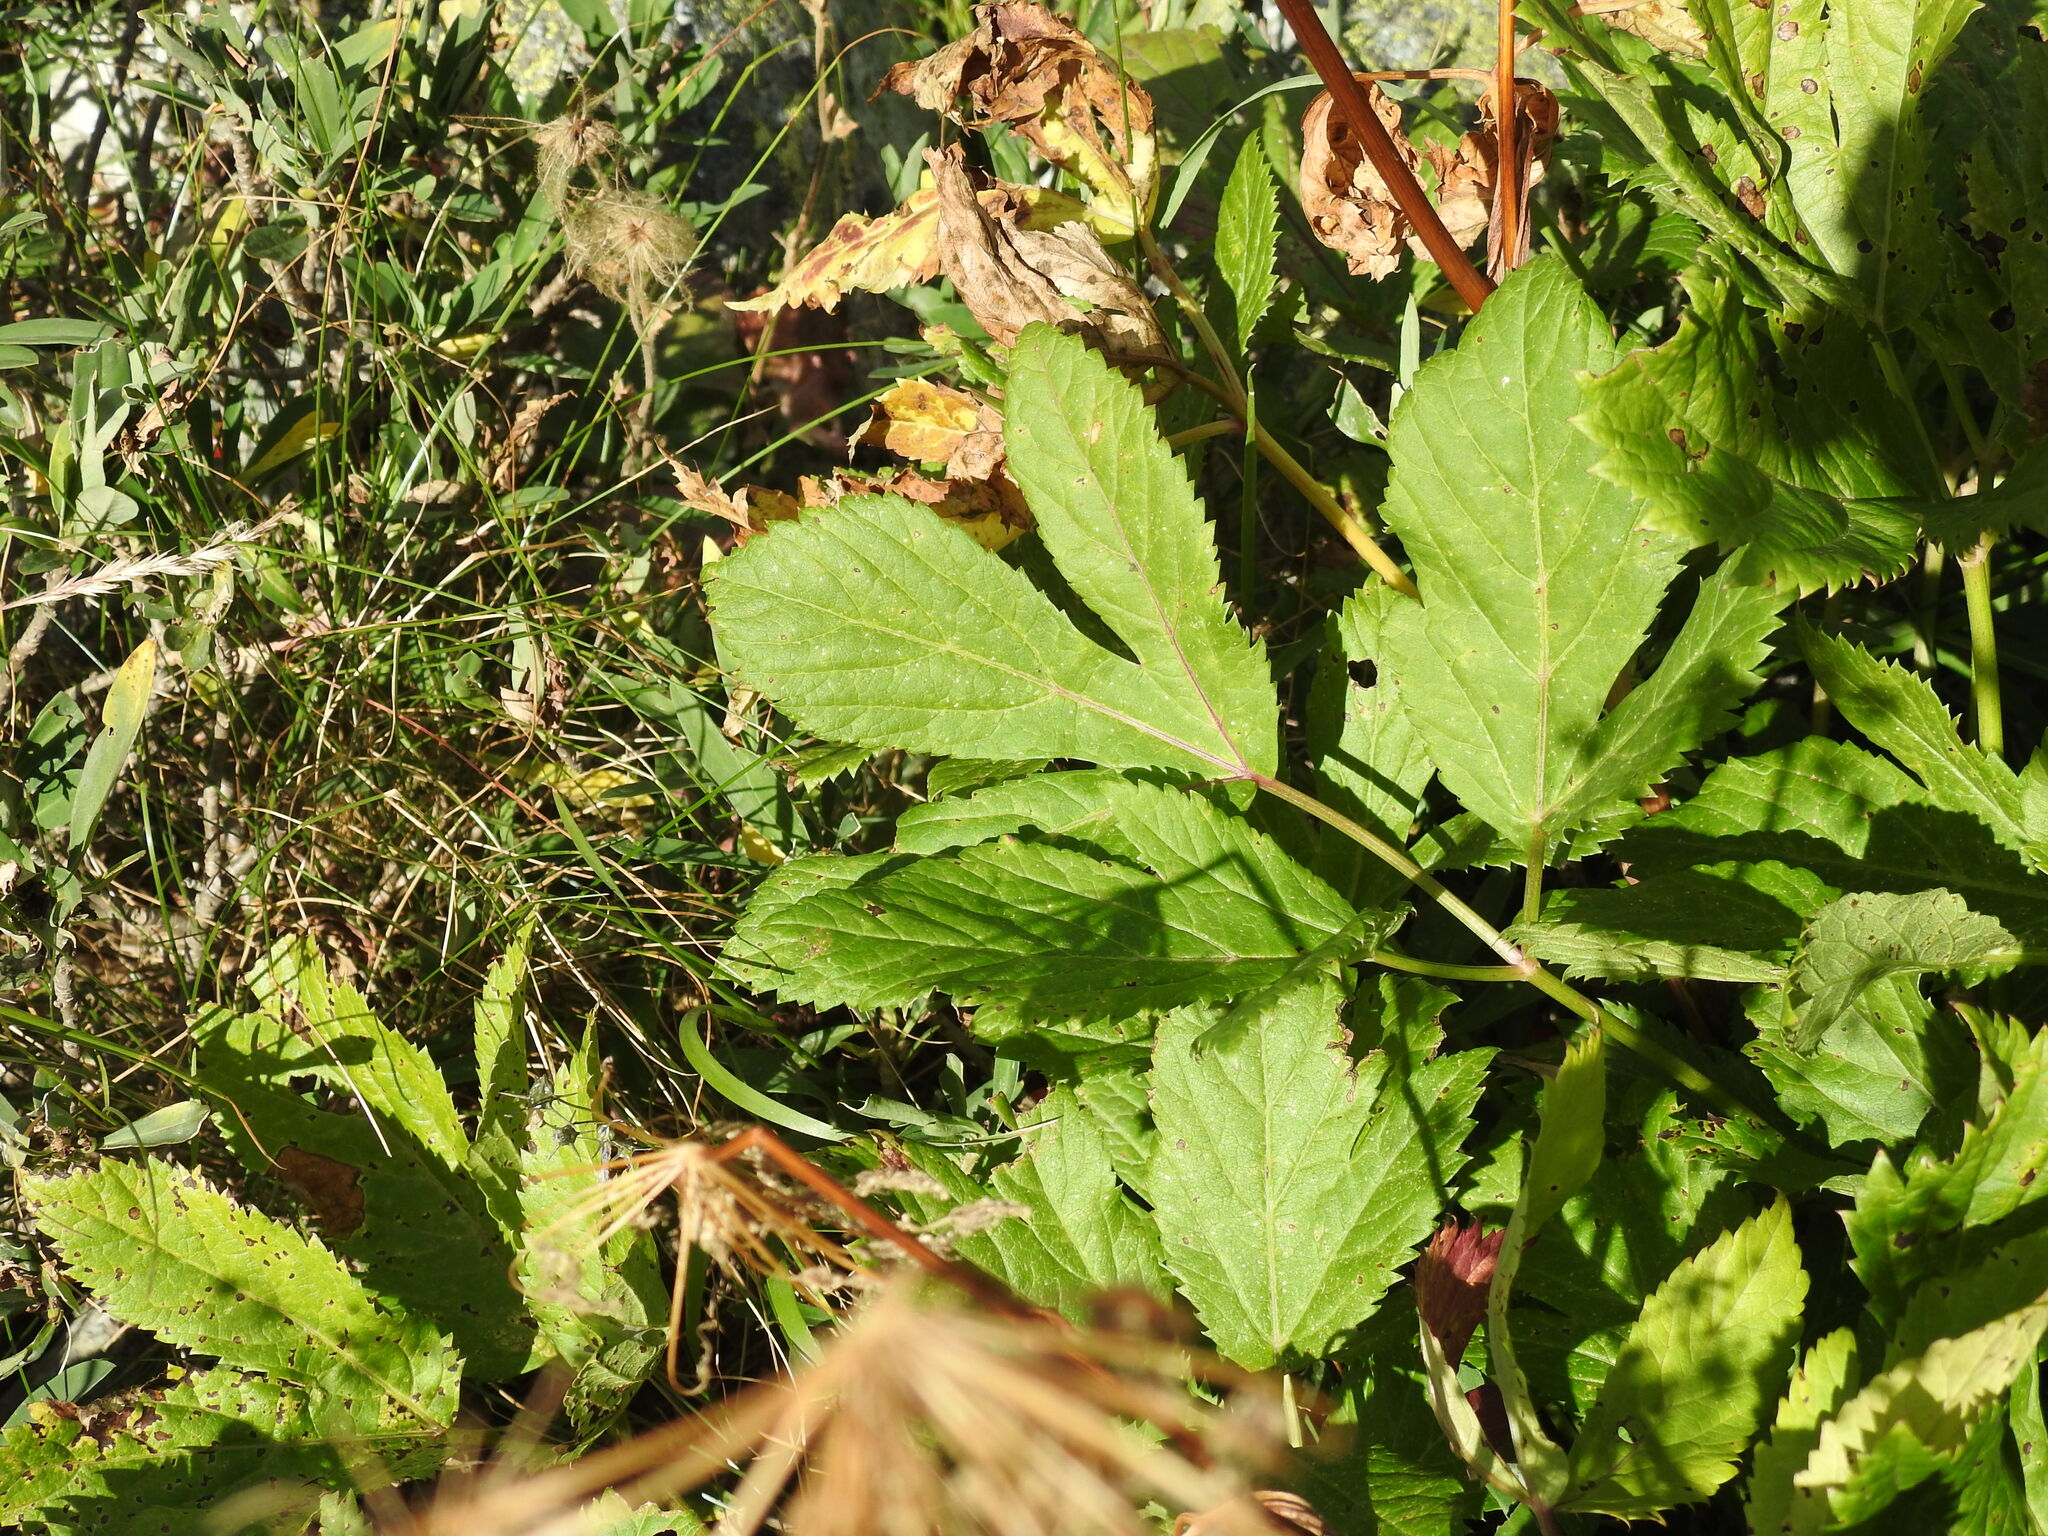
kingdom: Plantae
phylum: Tracheophyta
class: Magnoliopsida
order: Apiales
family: Apiaceae
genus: Imperatoria
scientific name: Imperatoria ostruthium
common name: Masterwort
